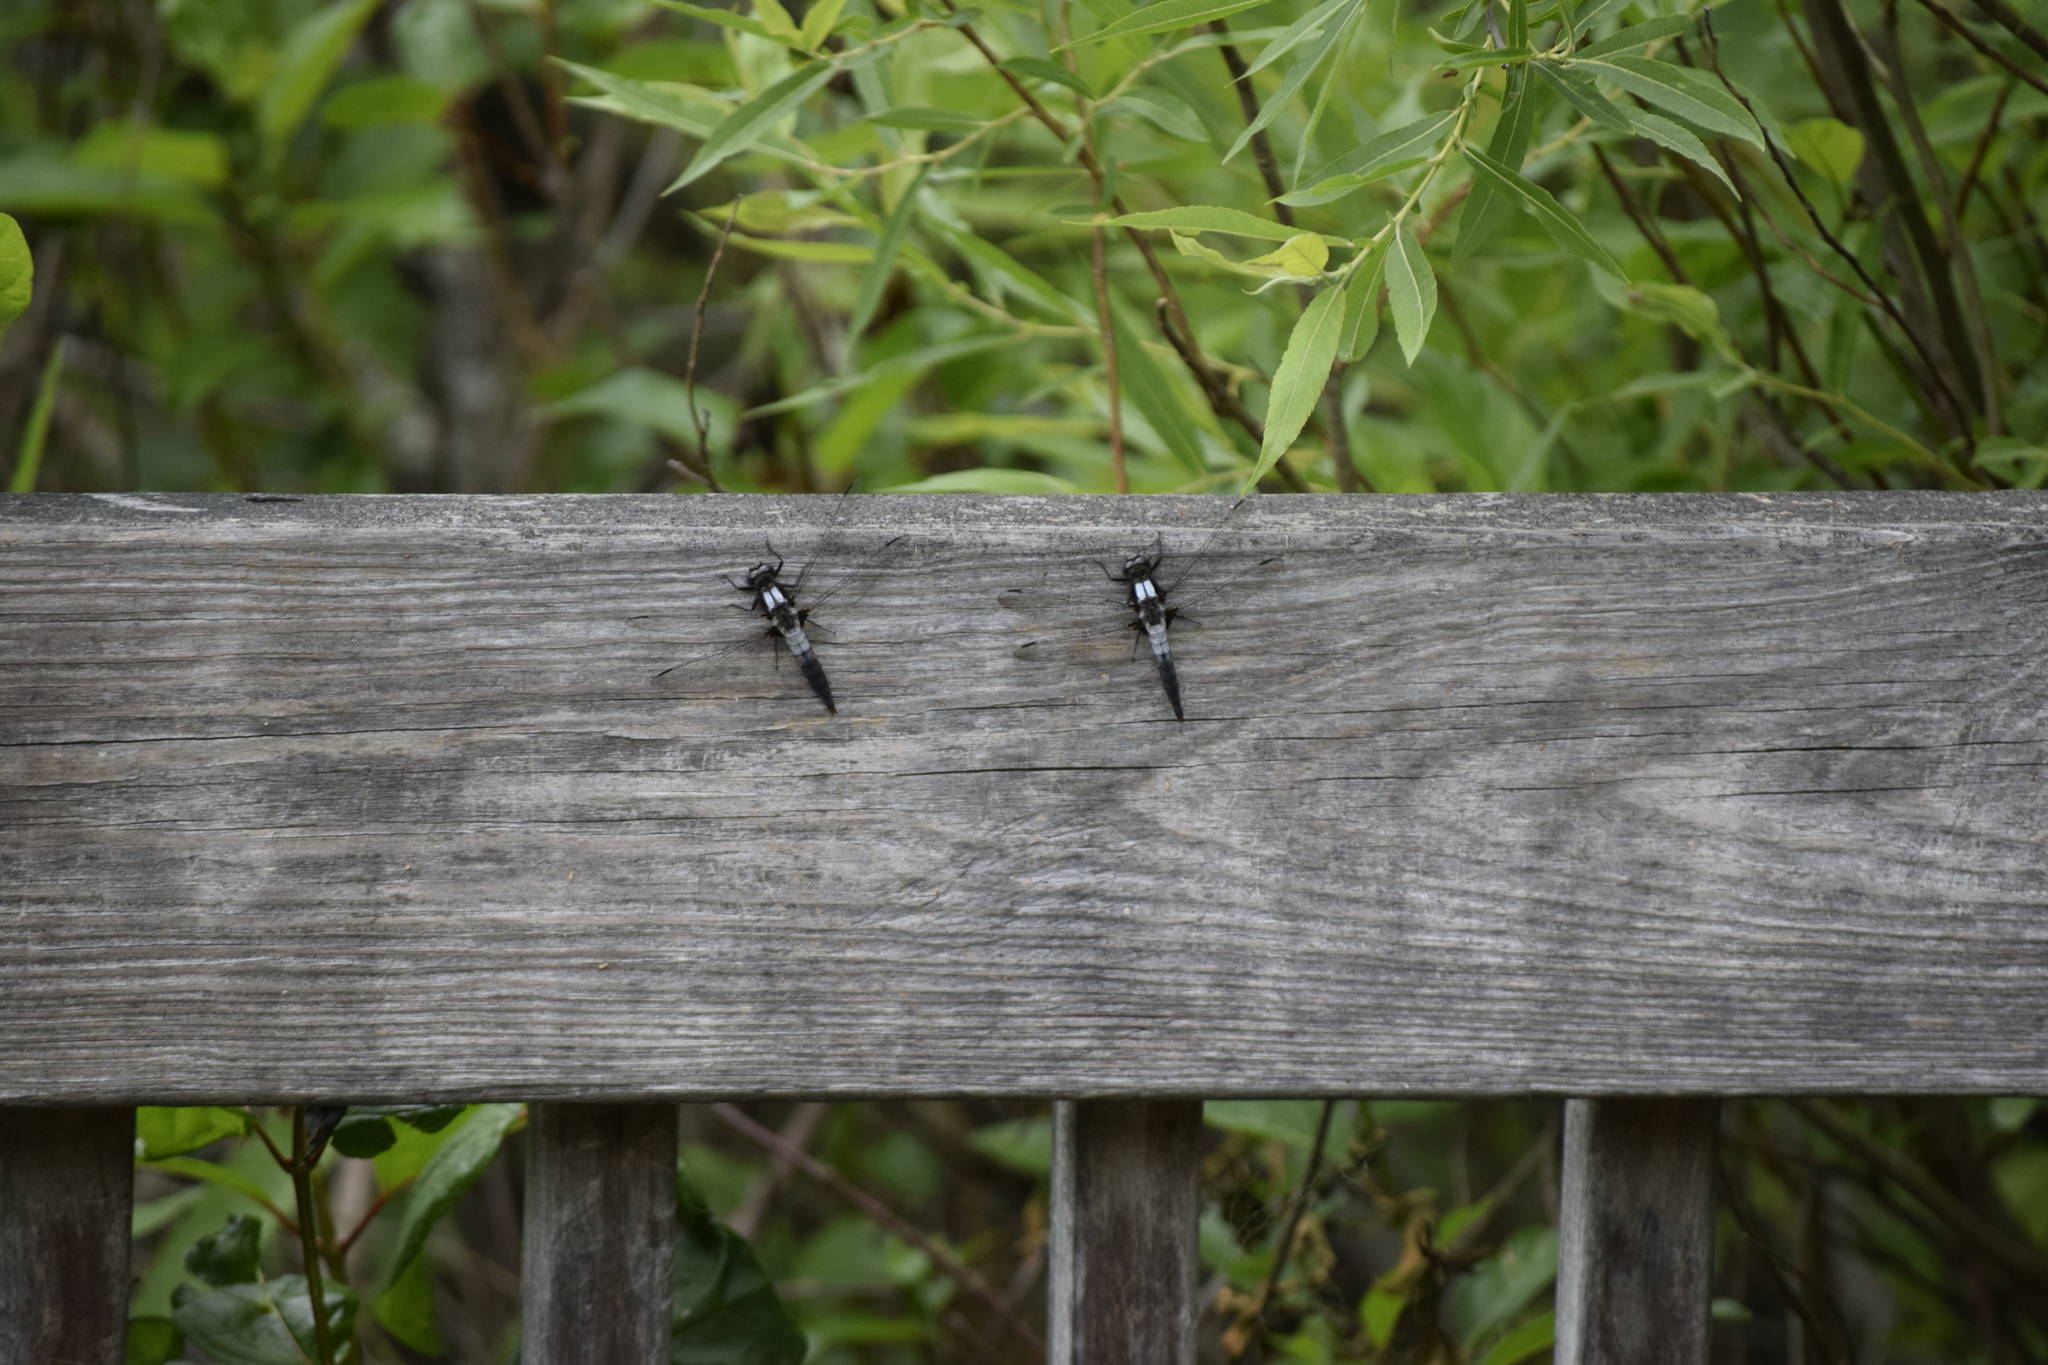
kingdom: Animalia
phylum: Arthropoda
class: Insecta
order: Odonata
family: Libellulidae
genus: Ladona
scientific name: Ladona julia
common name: Chalk-fronted corporal
